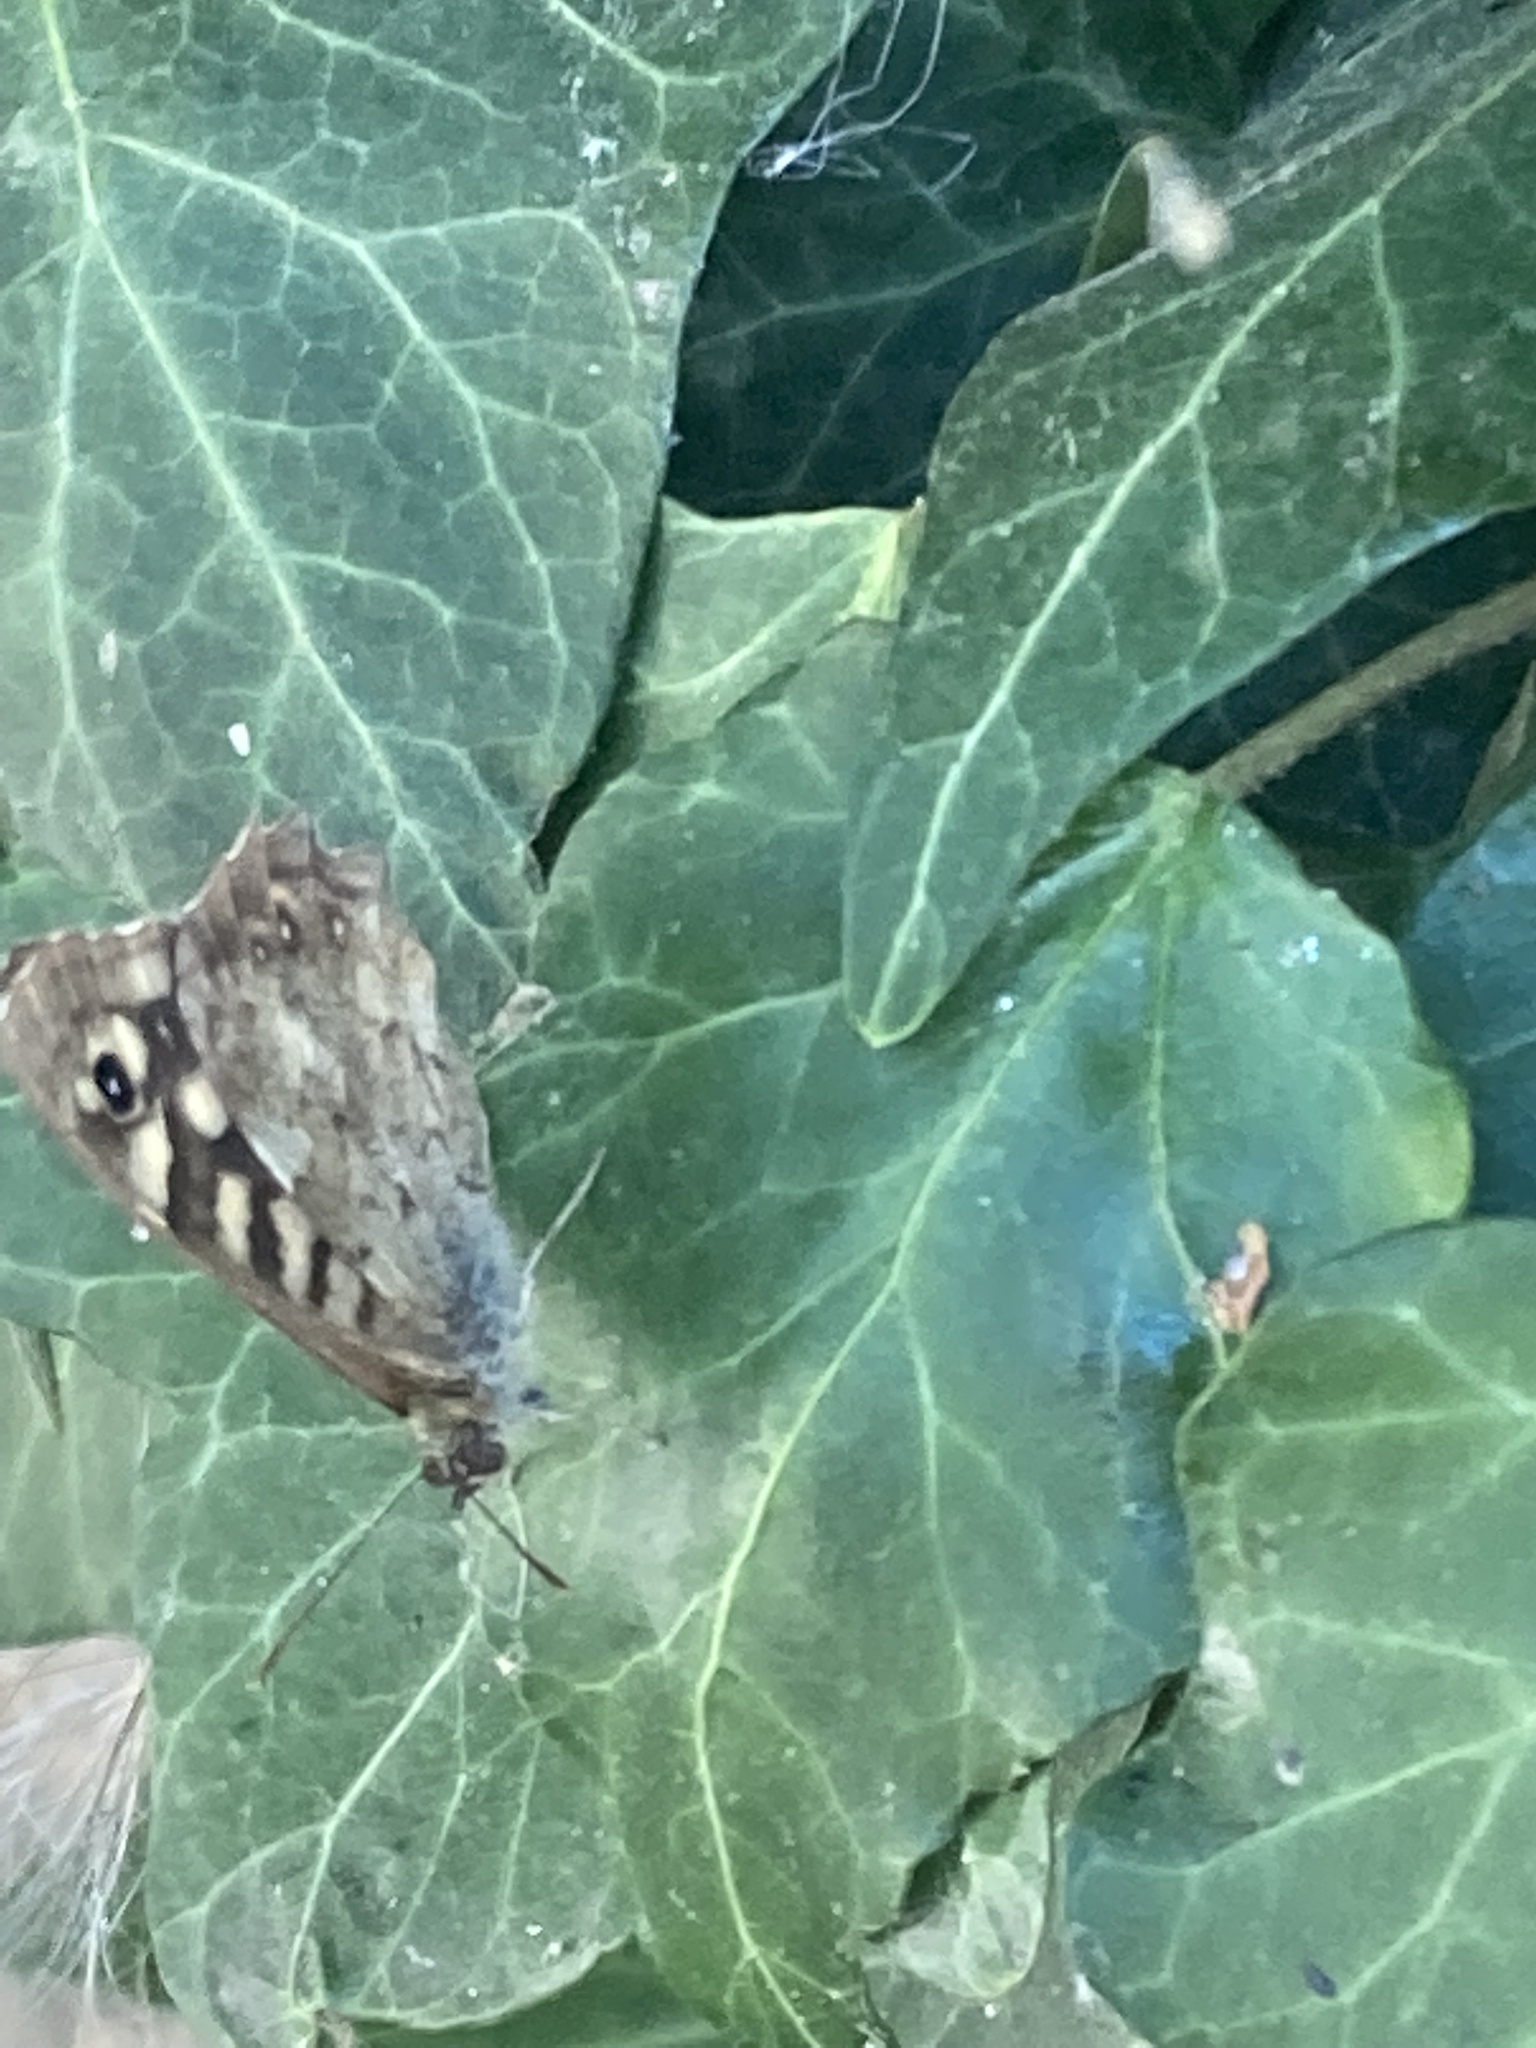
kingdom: Animalia
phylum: Arthropoda
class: Insecta
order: Lepidoptera
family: Nymphalidae
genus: Pararge
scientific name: Pararge aegeria
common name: Speckled wood
